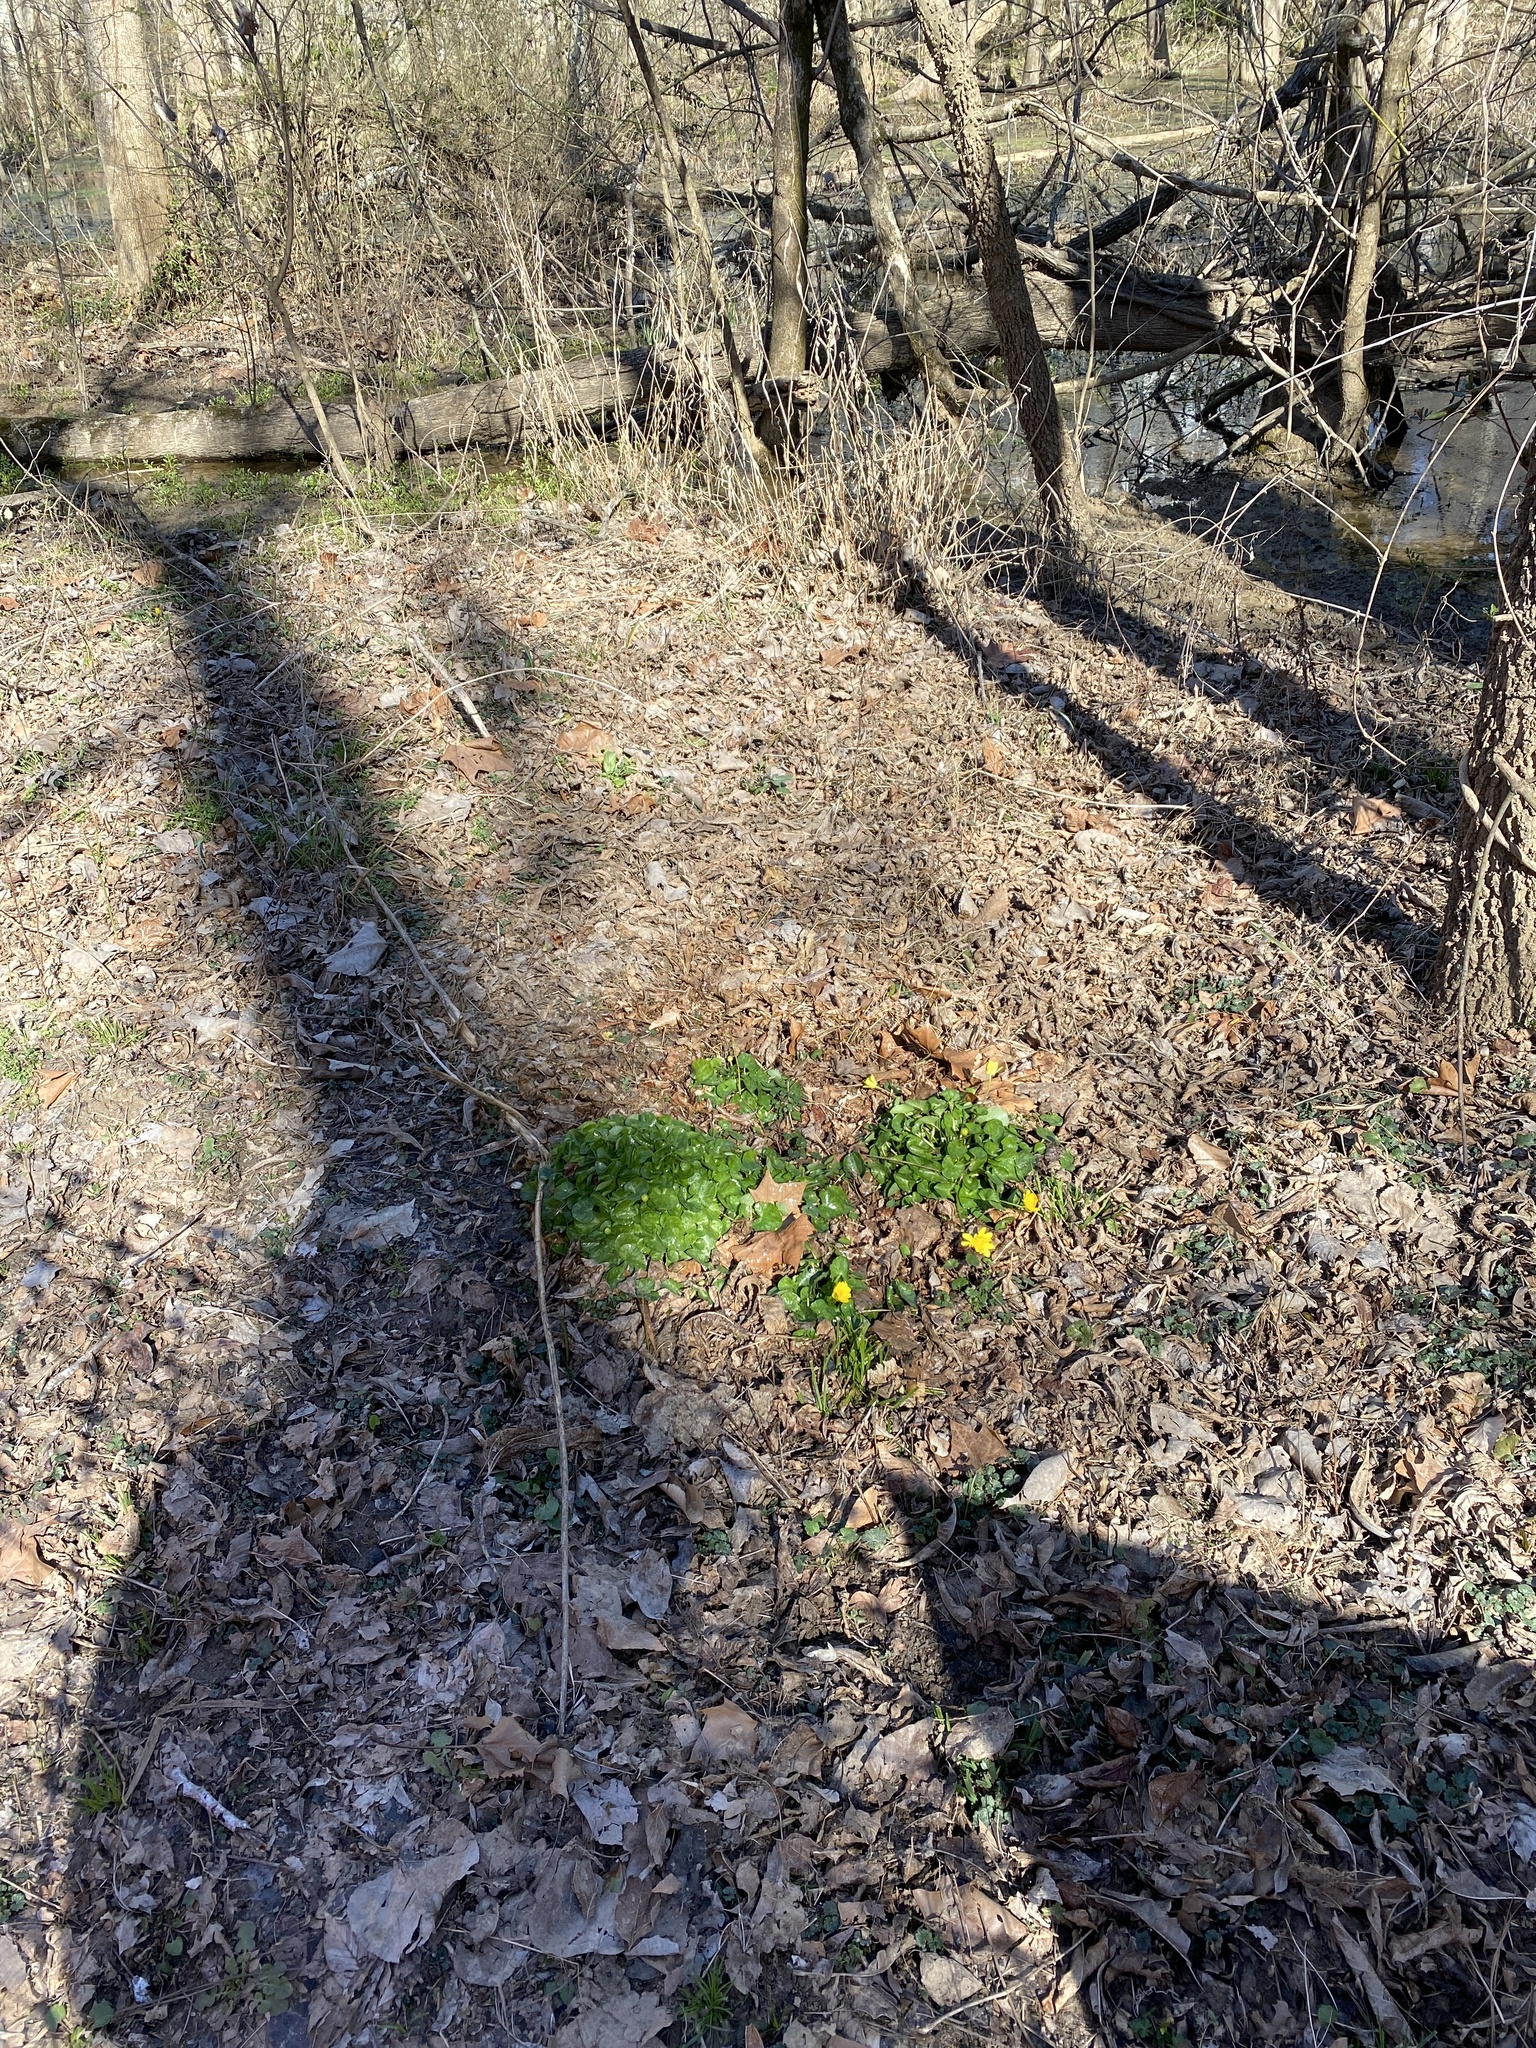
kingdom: Plantae
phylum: Tracheophyta
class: Magnoliopsida
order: Ranunculales
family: Ranunculaceae
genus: Ficaria
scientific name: Ficaria verna
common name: Lesser celandine
